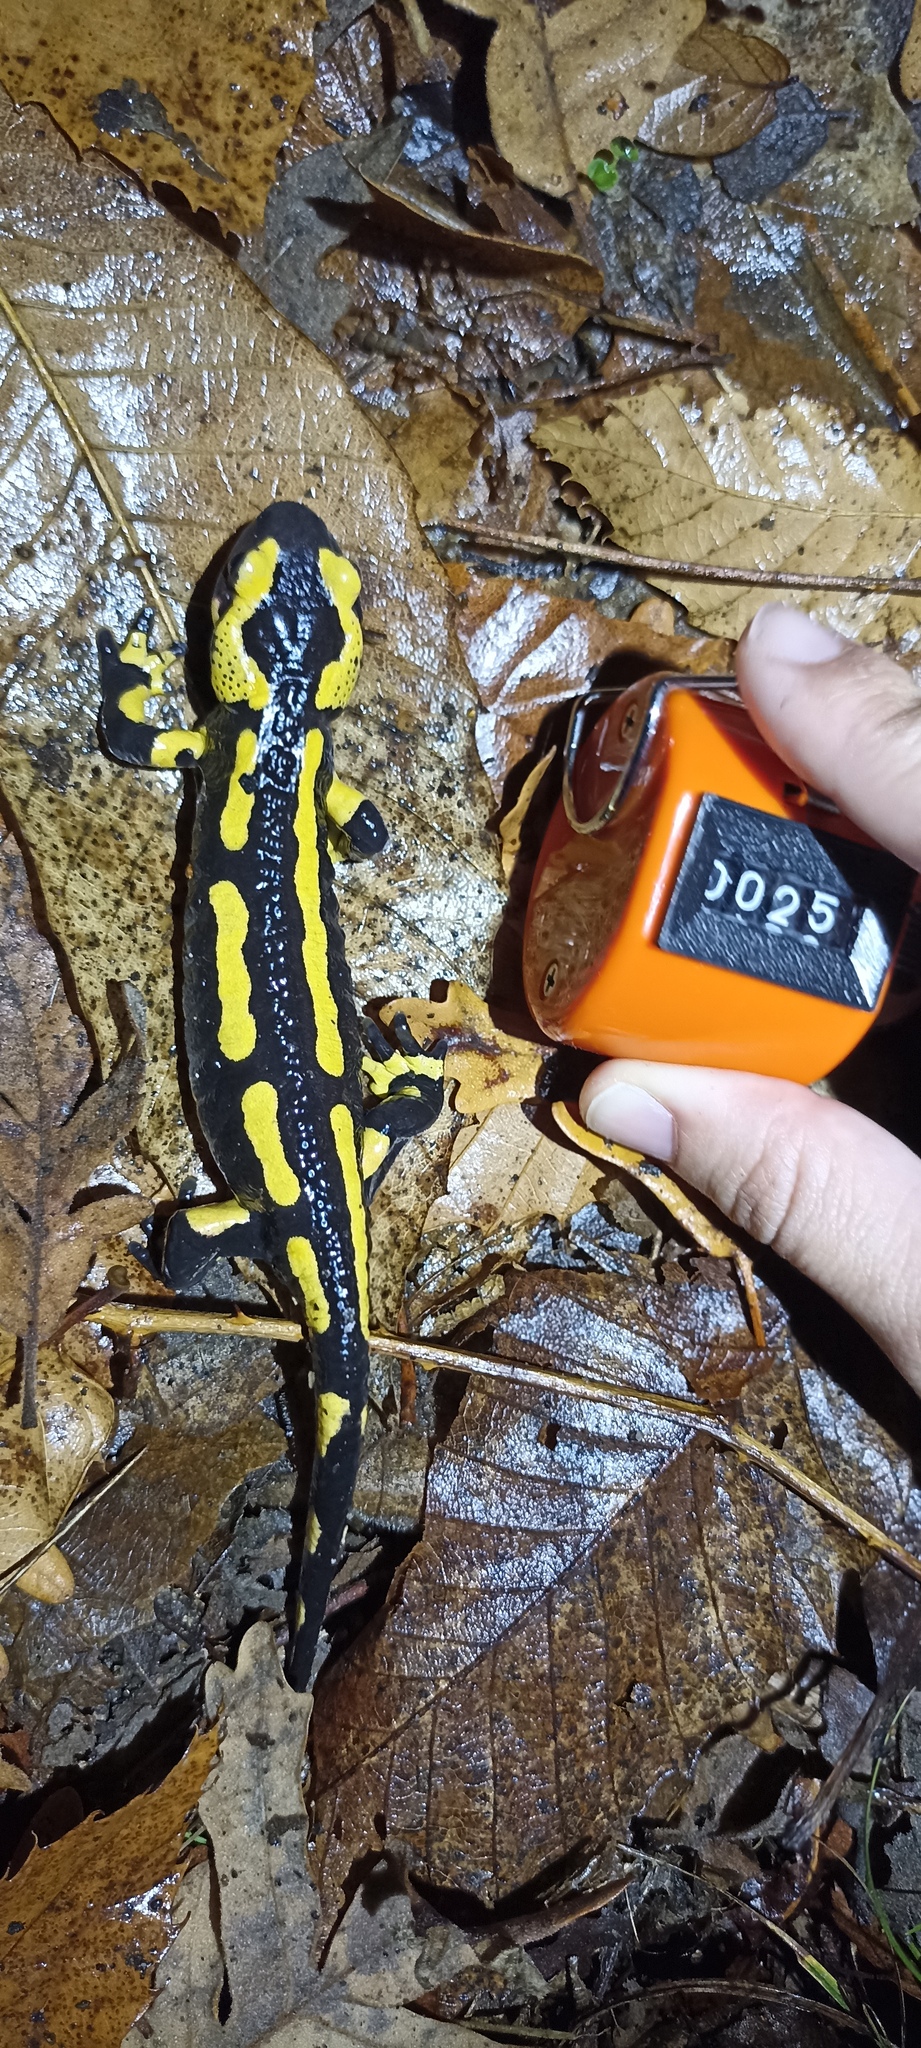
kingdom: Animalia
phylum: Chordata
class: Amphibia
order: Caudata
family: Salamandridae
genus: Salamandra
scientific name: Salamandra salamandra
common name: Fire salamander
